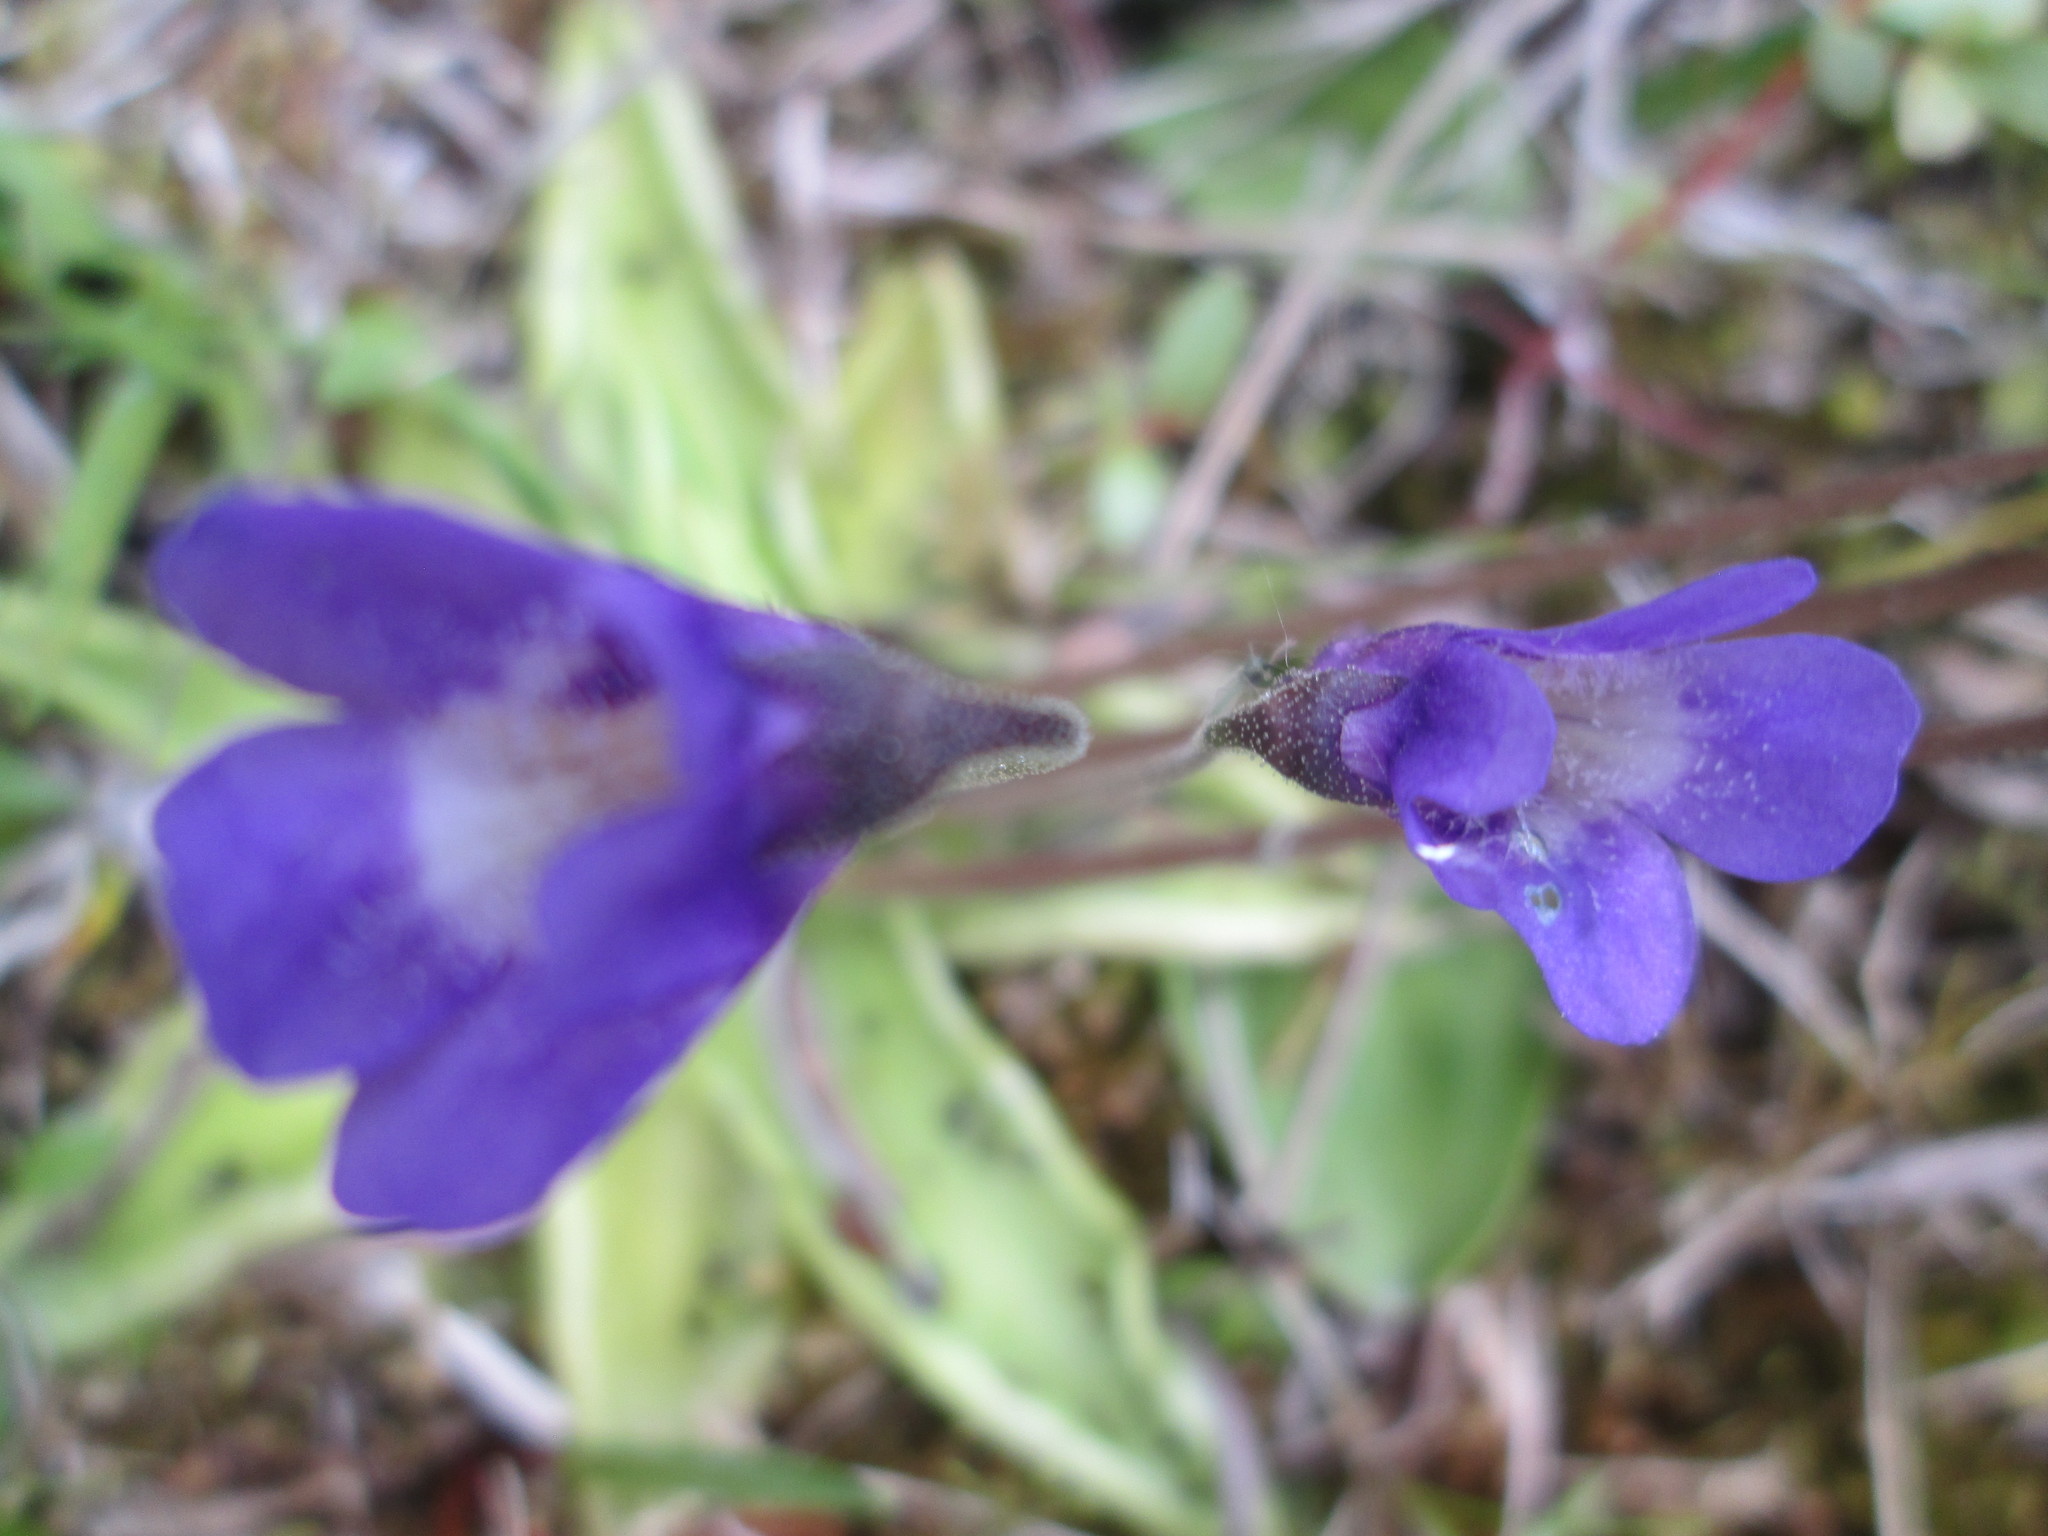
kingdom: Plantae
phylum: Tracheophyta
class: Magnoliopsida
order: Lamiales
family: Lentibulariaceae
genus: Pinguicula
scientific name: Pinguicula vulgaris
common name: Common butterwort
